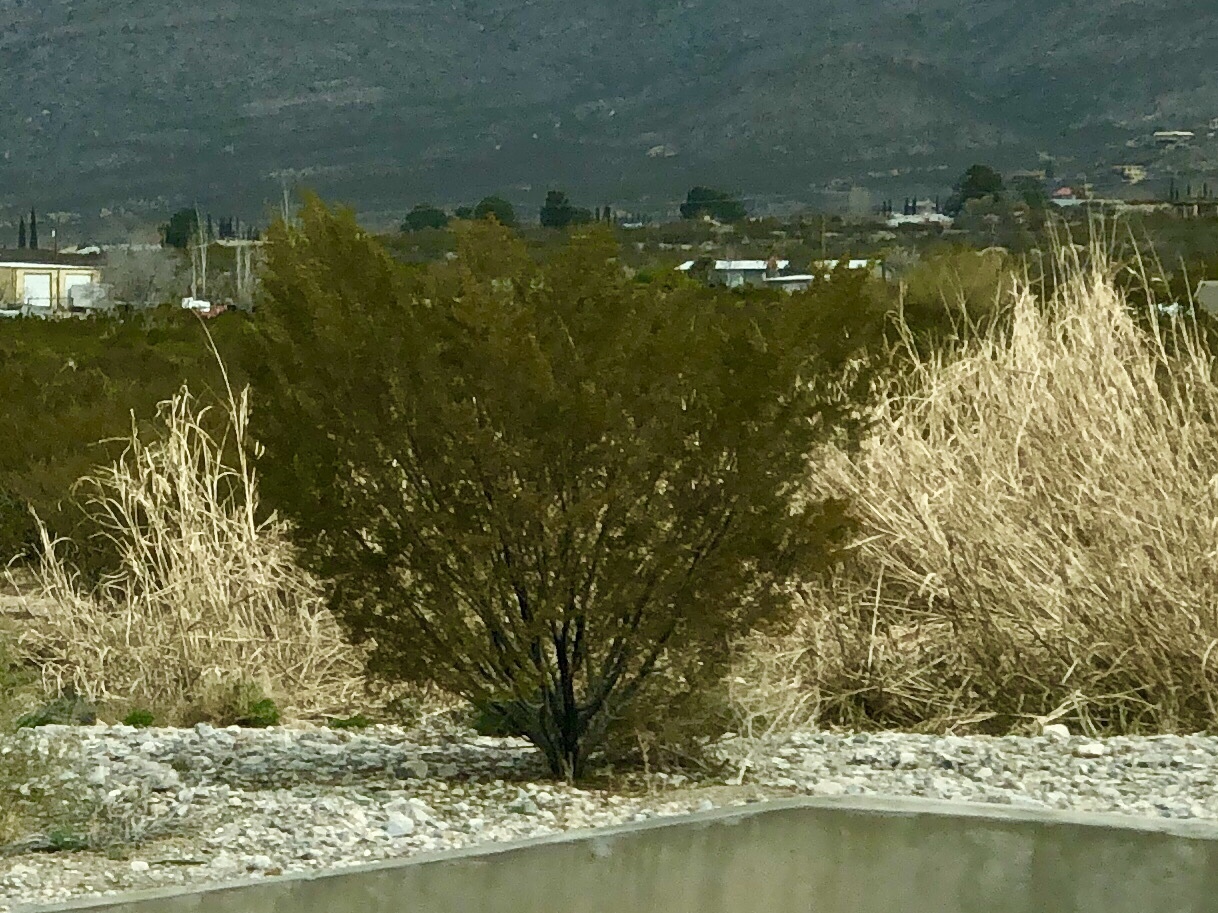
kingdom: Plantae
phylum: Tracheophyta
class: Magnoliopsida
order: Zygophyllales
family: Zygophyllaceae
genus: Larrea
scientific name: Larrea tridentata
